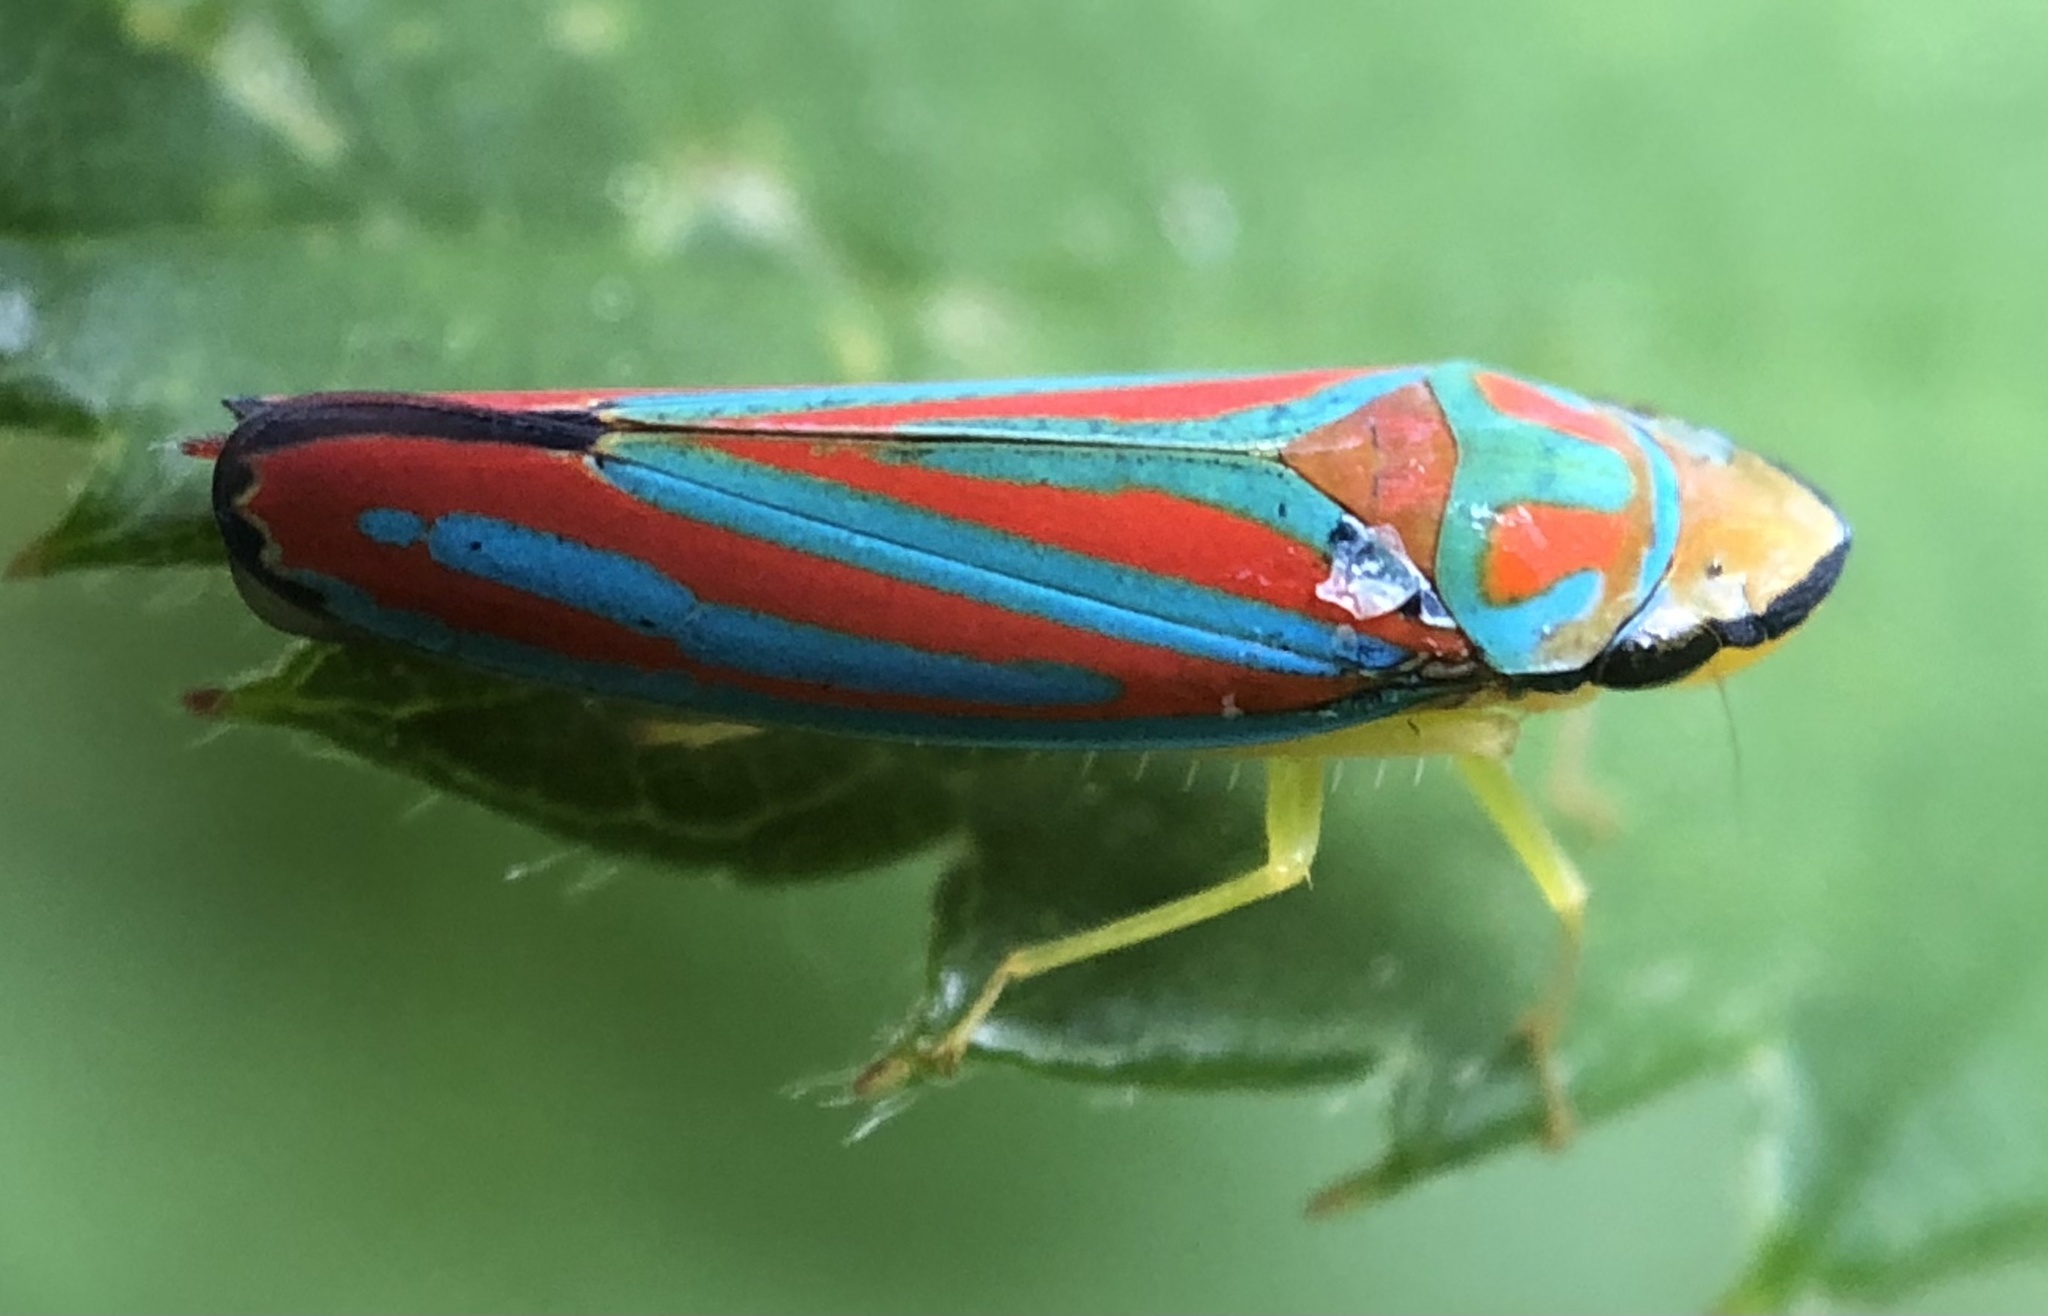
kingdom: Animalia
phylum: Arthropoda
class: Insecta
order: Hemiptera
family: Cicadellidae
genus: Graphocephala
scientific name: Graphocephala coccinea
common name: Candy-striped leafhopper
